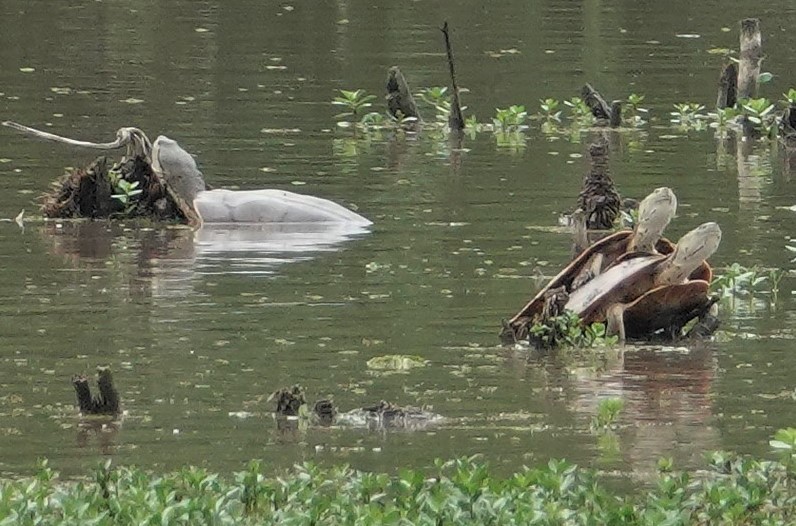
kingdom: Animalia
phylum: Chordata
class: Testudines
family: Chelidae
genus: Phrynops
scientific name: Phrynops hilarii
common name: Side-necked turtle of saint hillaire
